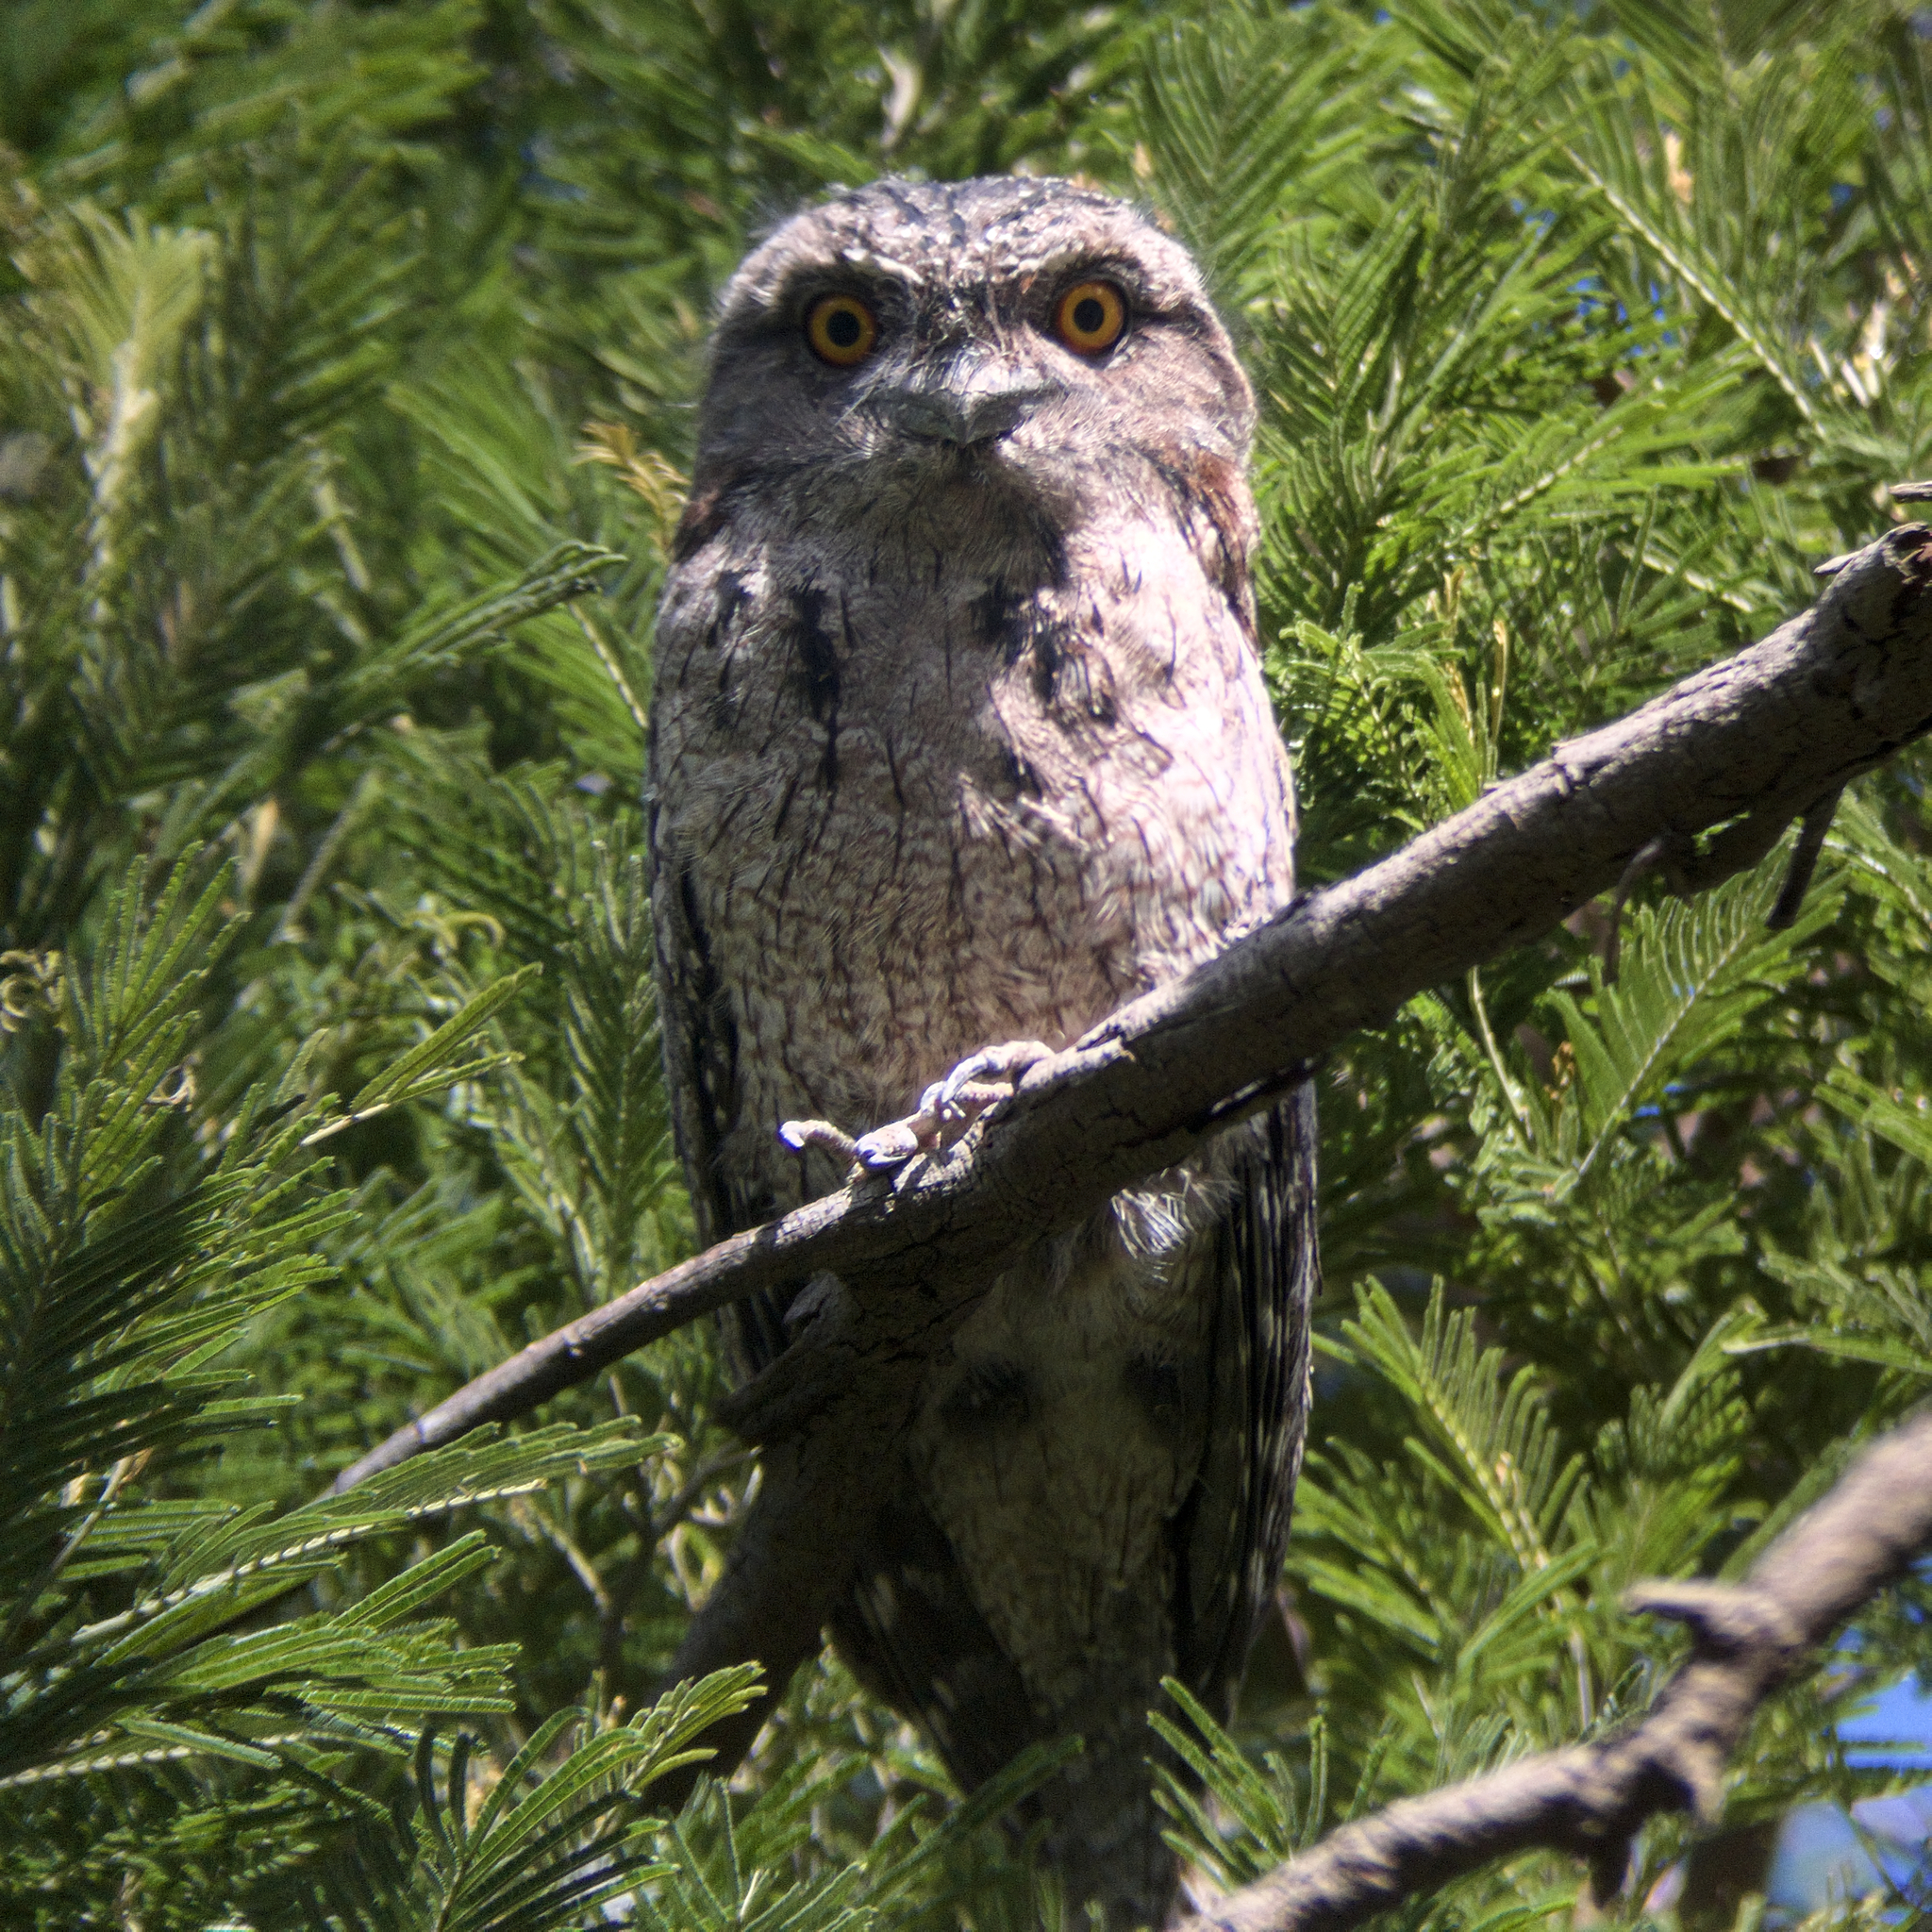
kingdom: Animalia
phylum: Chordata
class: Aves
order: Caprimulgiformes
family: Podargidae
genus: Podargus
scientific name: Podargus strigoides
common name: Tawny frogmouth
